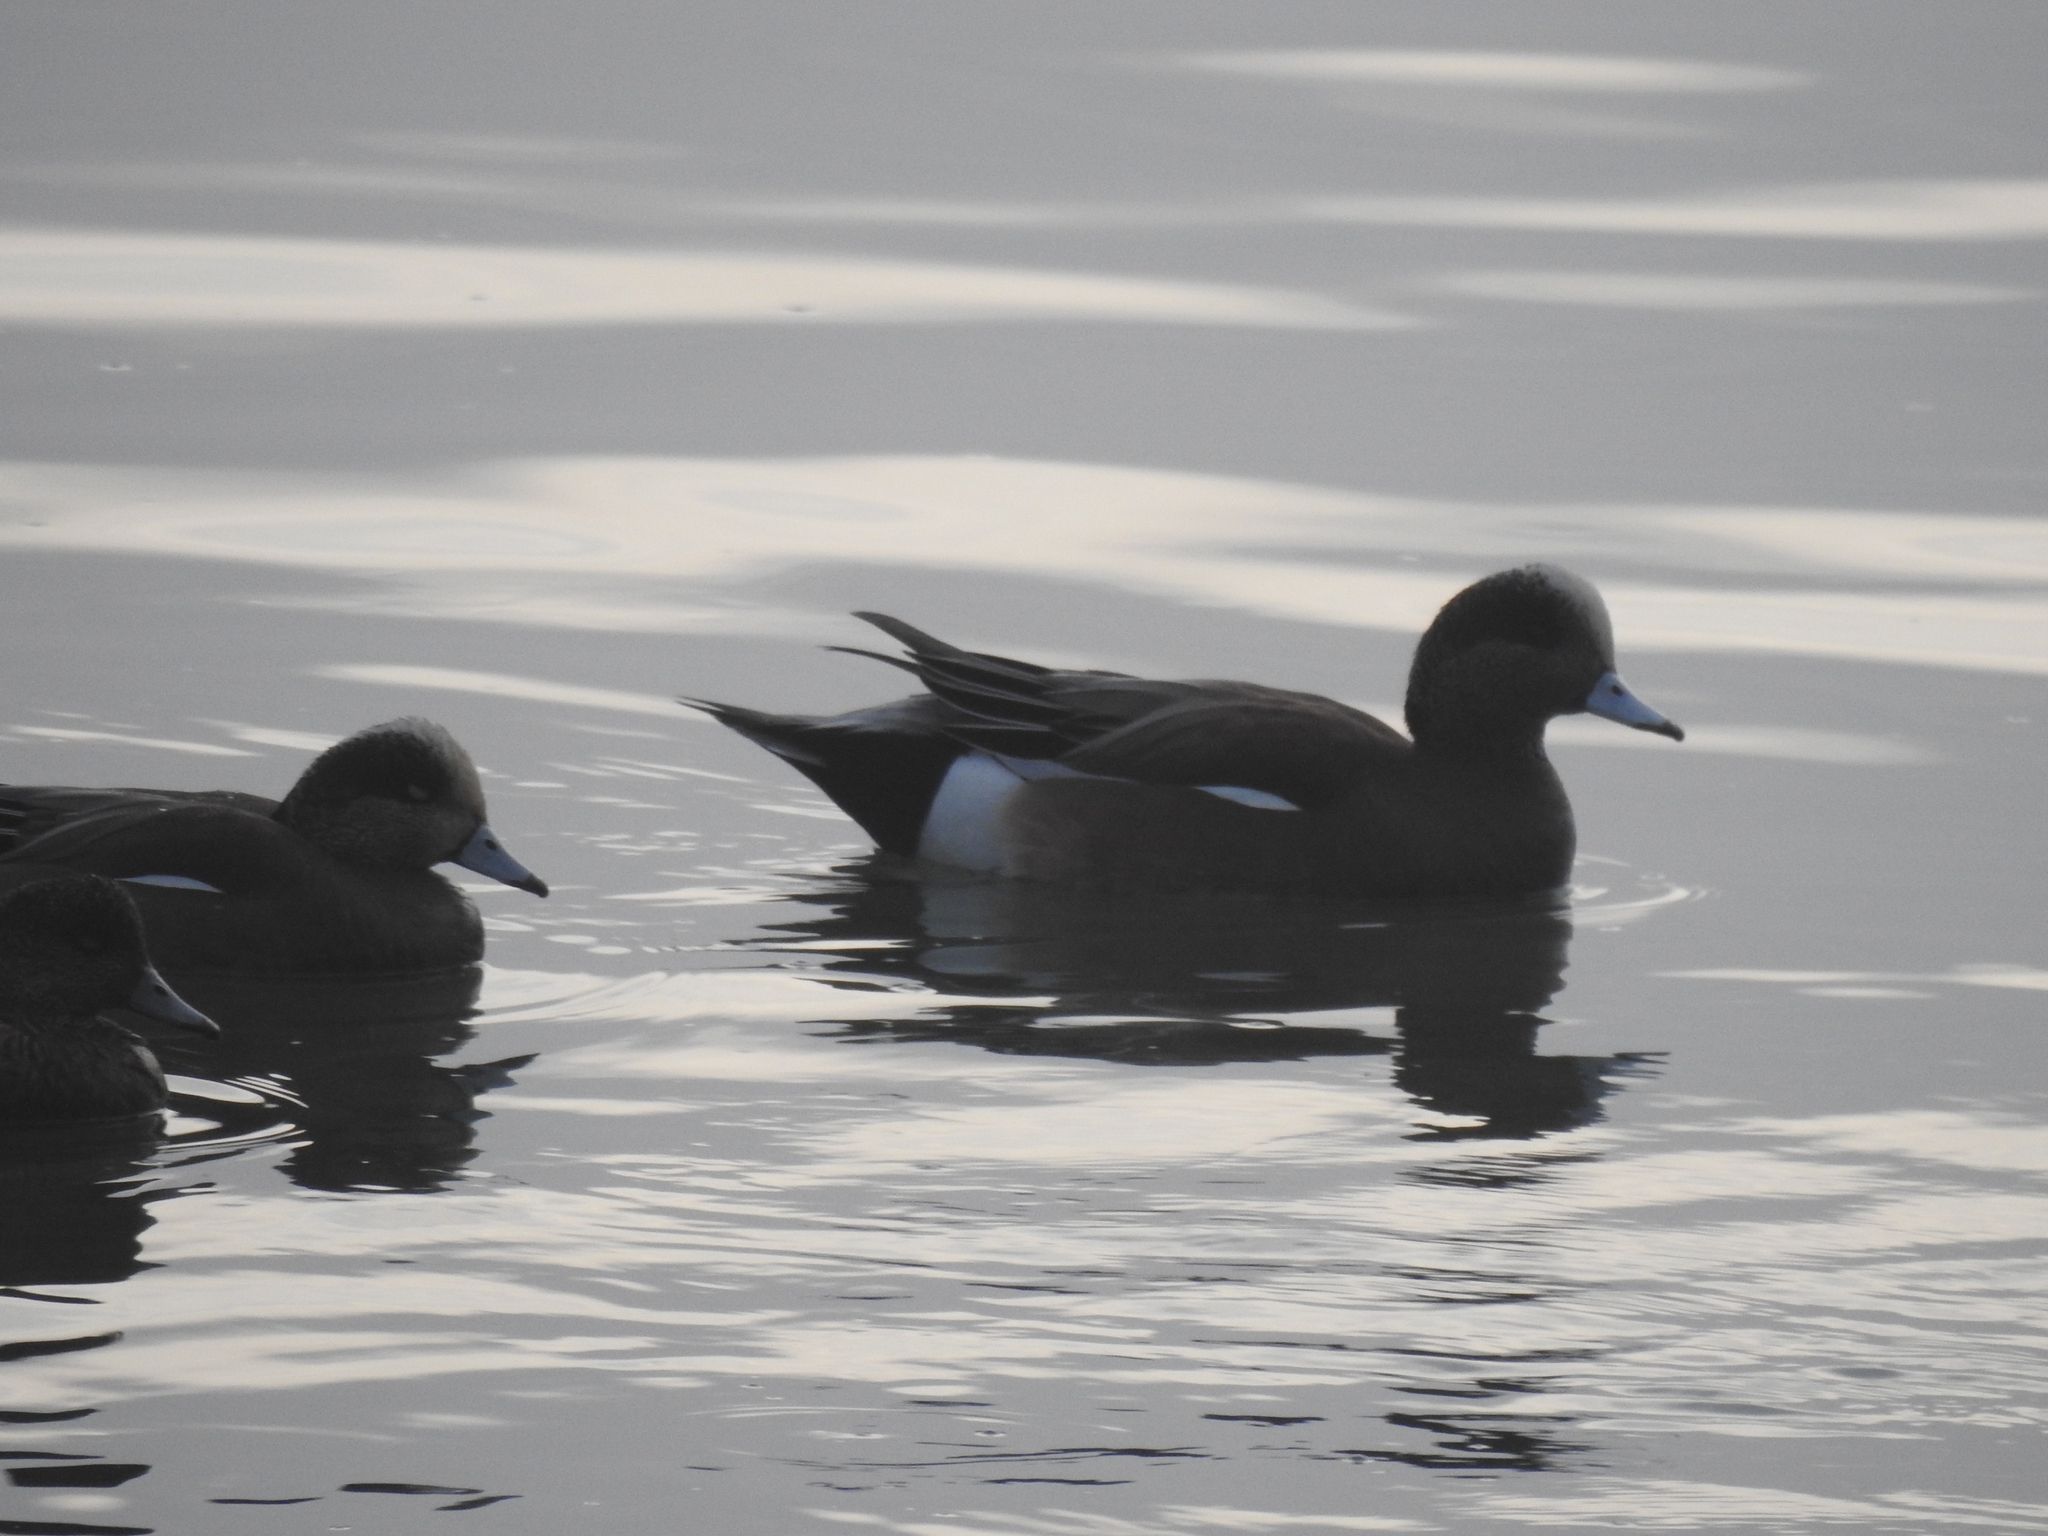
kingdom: Animalia
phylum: Chordata
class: Aves
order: Anseriformes
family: Anatidae
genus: Mareca
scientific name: Mareca americana
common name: American wigeon
